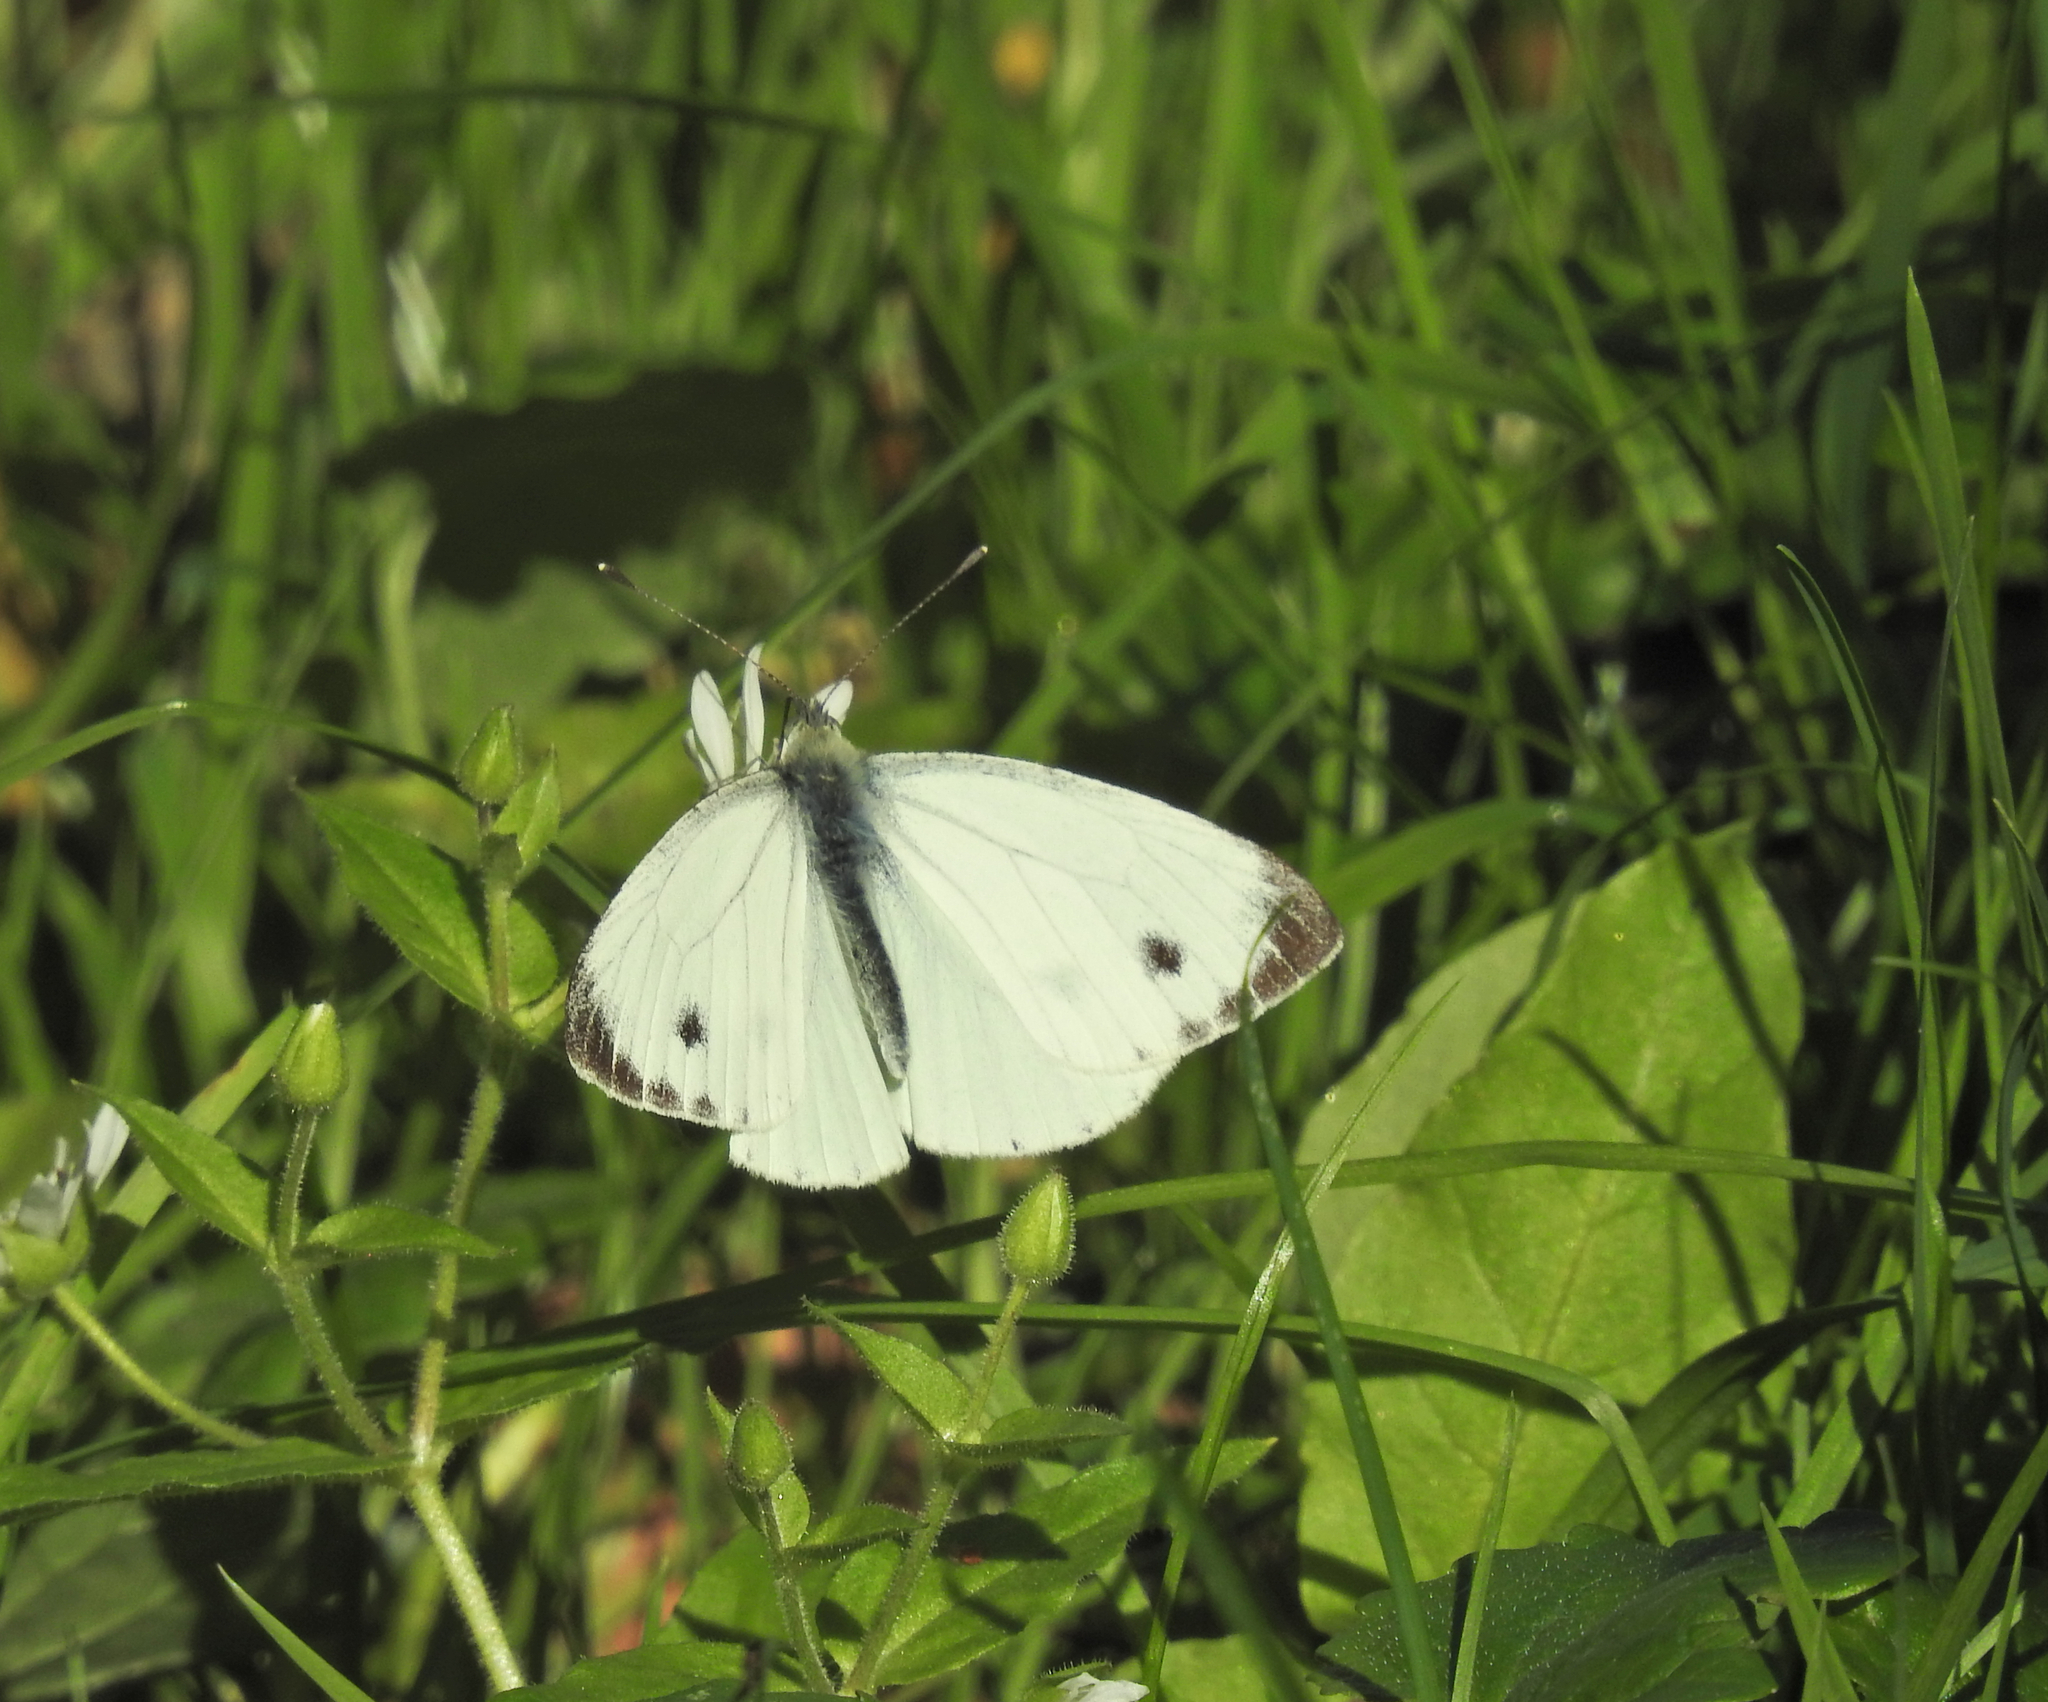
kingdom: Animalia
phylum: Arthropoda
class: Insecta
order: Lepidoptera
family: Pieridae
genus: Pieris
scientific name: Pieris napi
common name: Green-veined white
